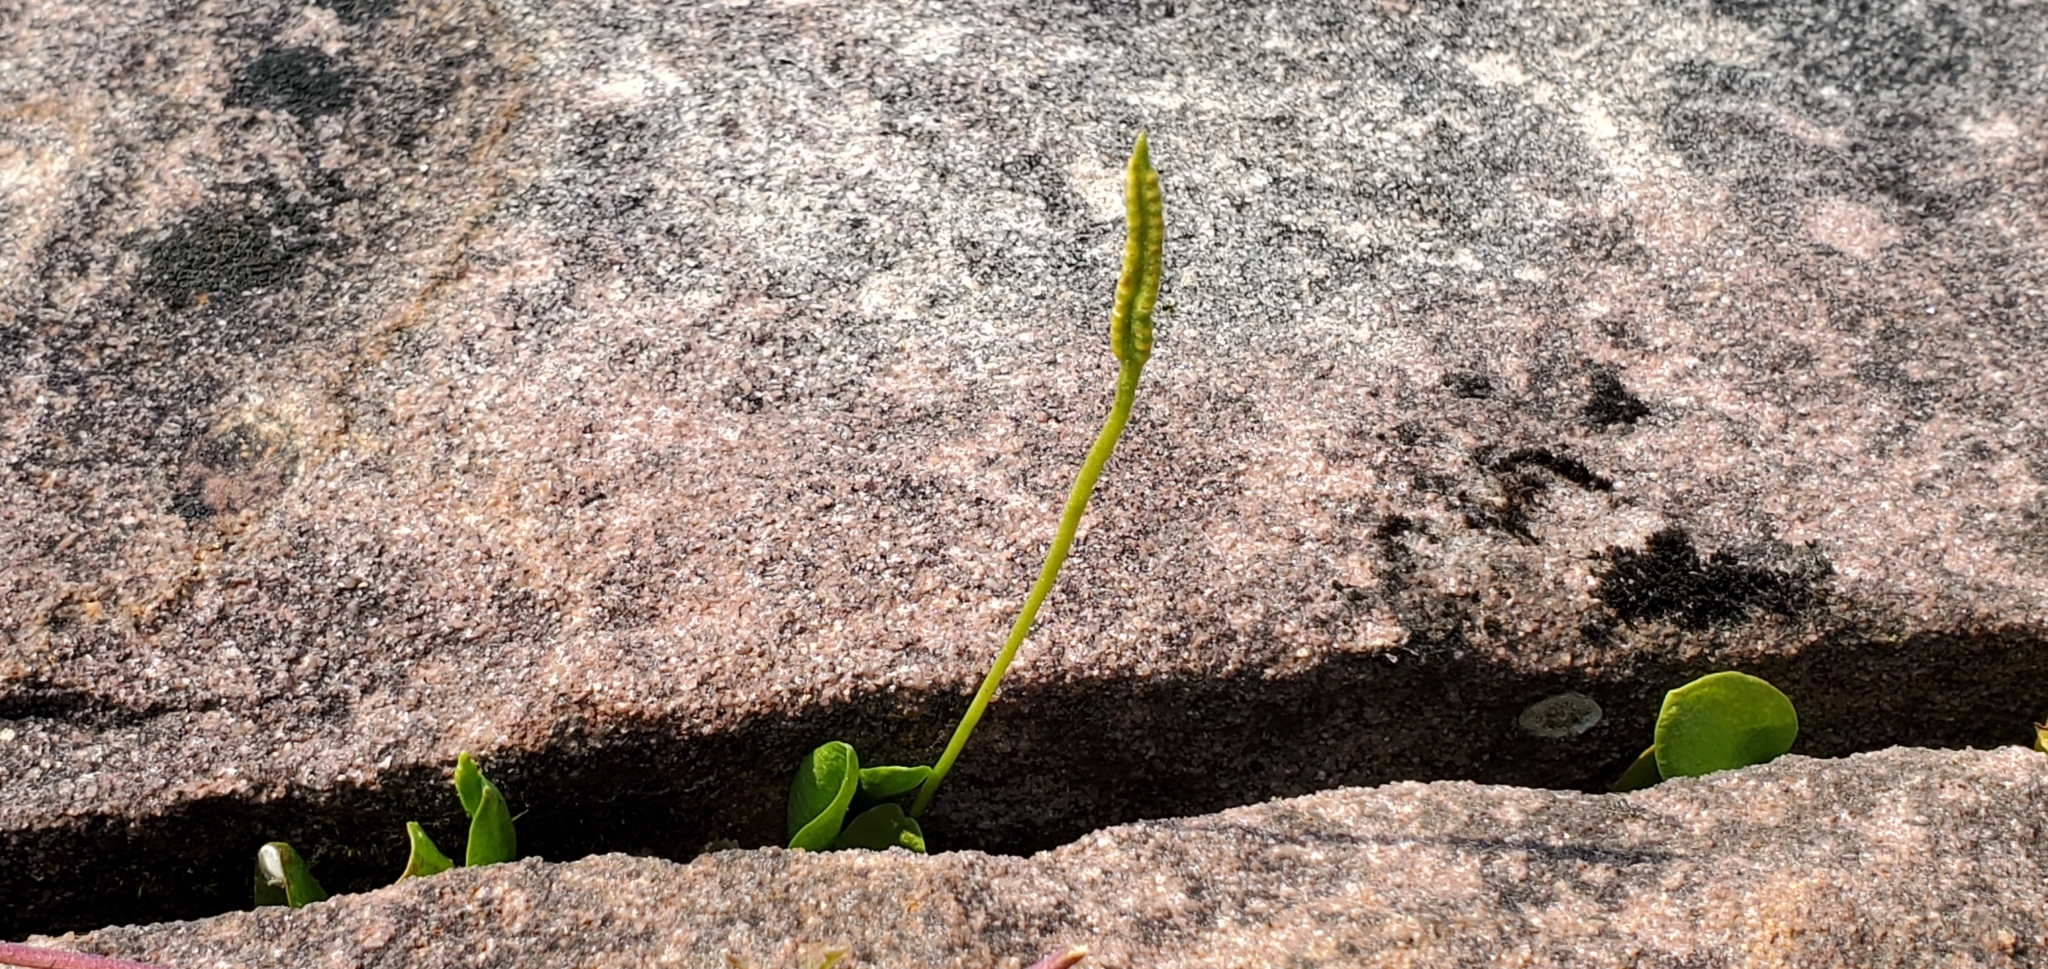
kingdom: Plantae
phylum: Tracheophyta
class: Polypodiopsida
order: Ophioglossales
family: Ophioglossaceae
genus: Ophioglossum
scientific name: Ophioglossum pusillum
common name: Northern adder's-tongue
